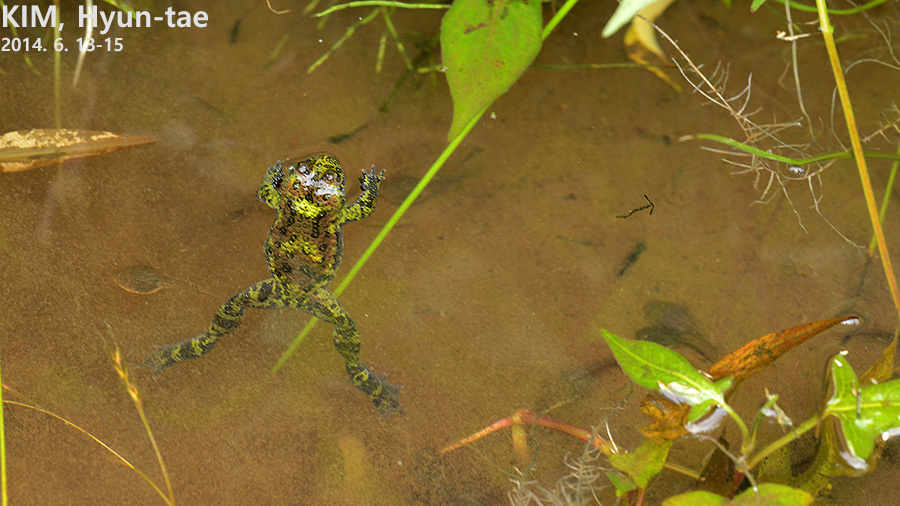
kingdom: Animalia
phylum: Chordata
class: Amphibia
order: Anura
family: Bombinatoridae
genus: Bombina
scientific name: Bombina orientalis
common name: Oriental firebelly toad
